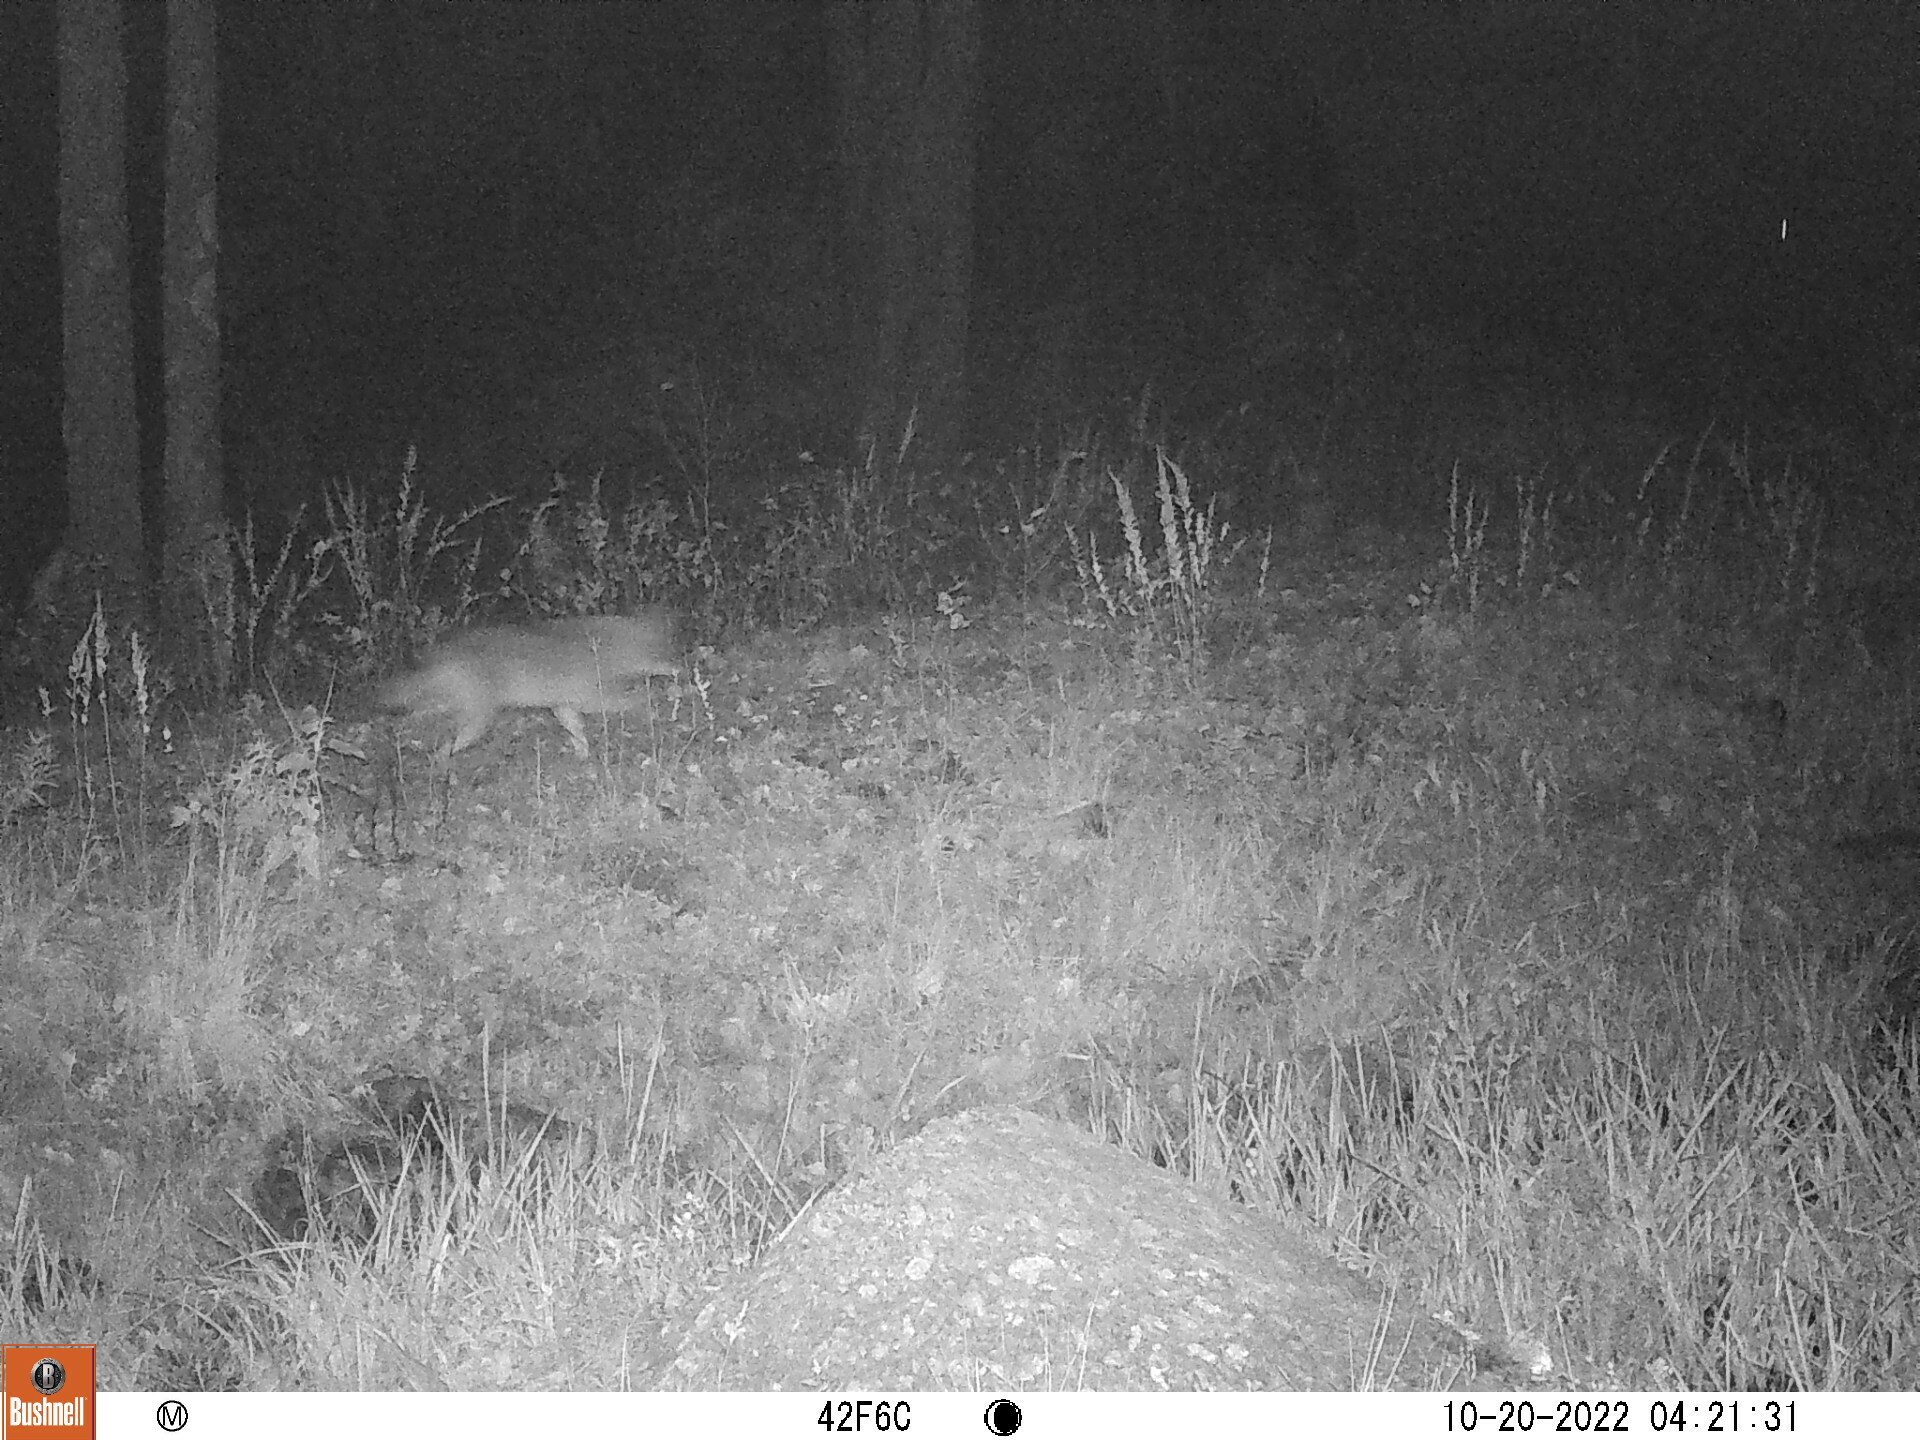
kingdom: Animalia
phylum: Chordata
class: Mammalia
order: Carnivora
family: Canidae
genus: Canis
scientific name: Canis latrans
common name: Coyote
